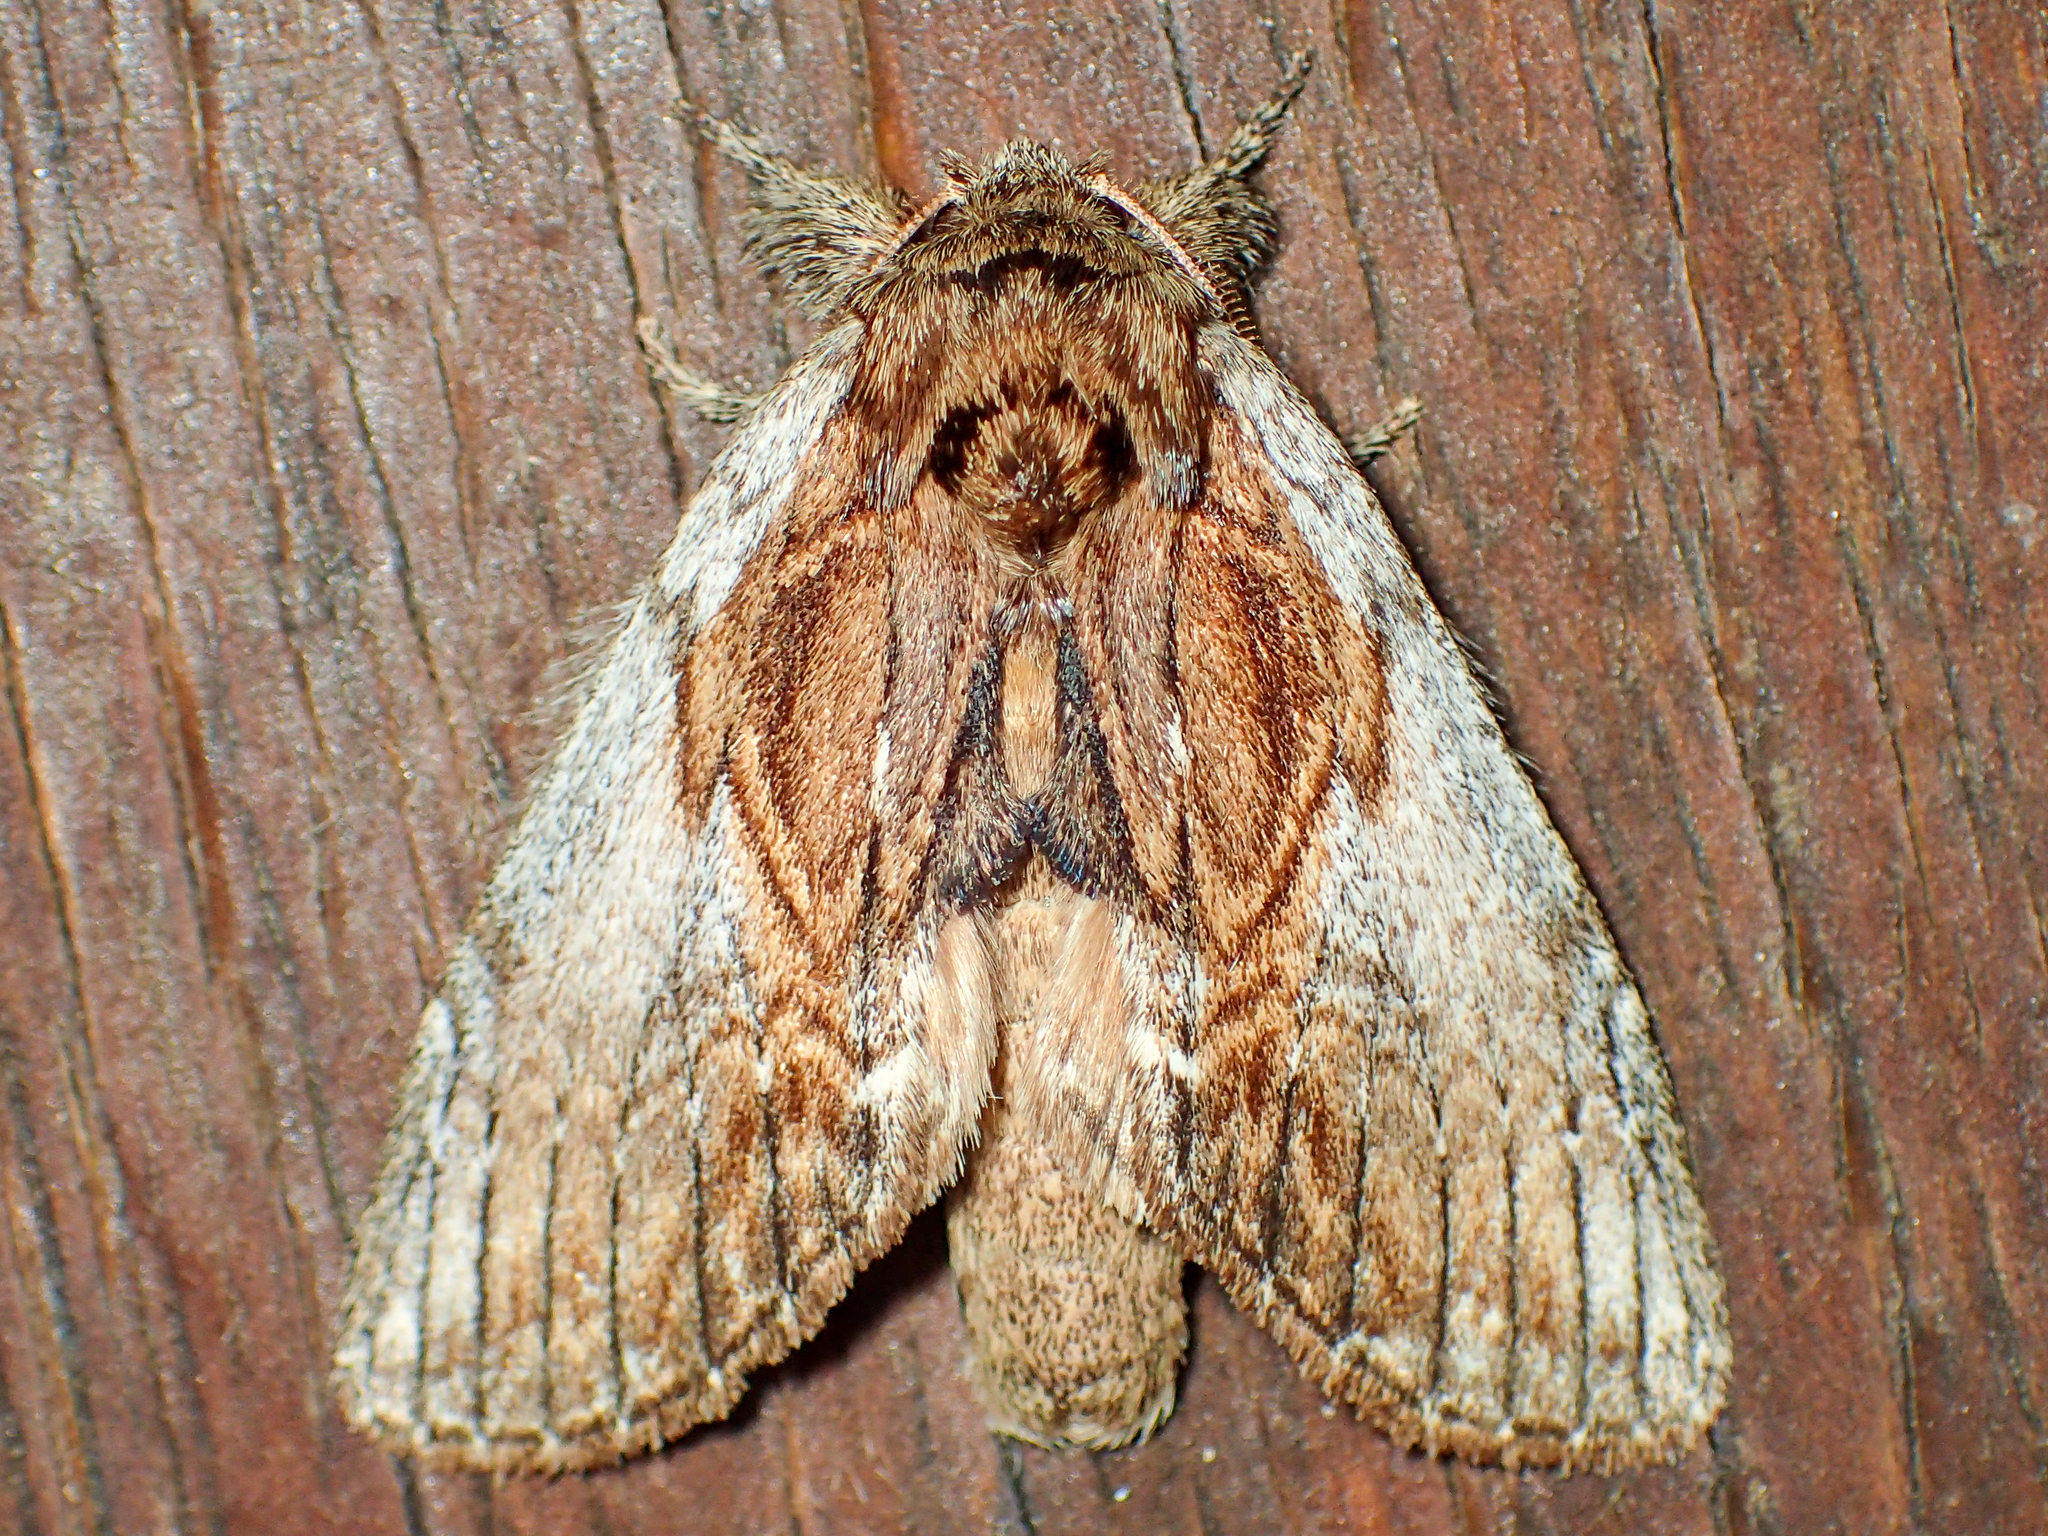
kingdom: Animalia
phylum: Arthropoda
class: Insecta
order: Lepidoptera
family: Notodontidae
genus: Peridea
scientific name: Peridea basitriens
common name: Oval-based prominent
